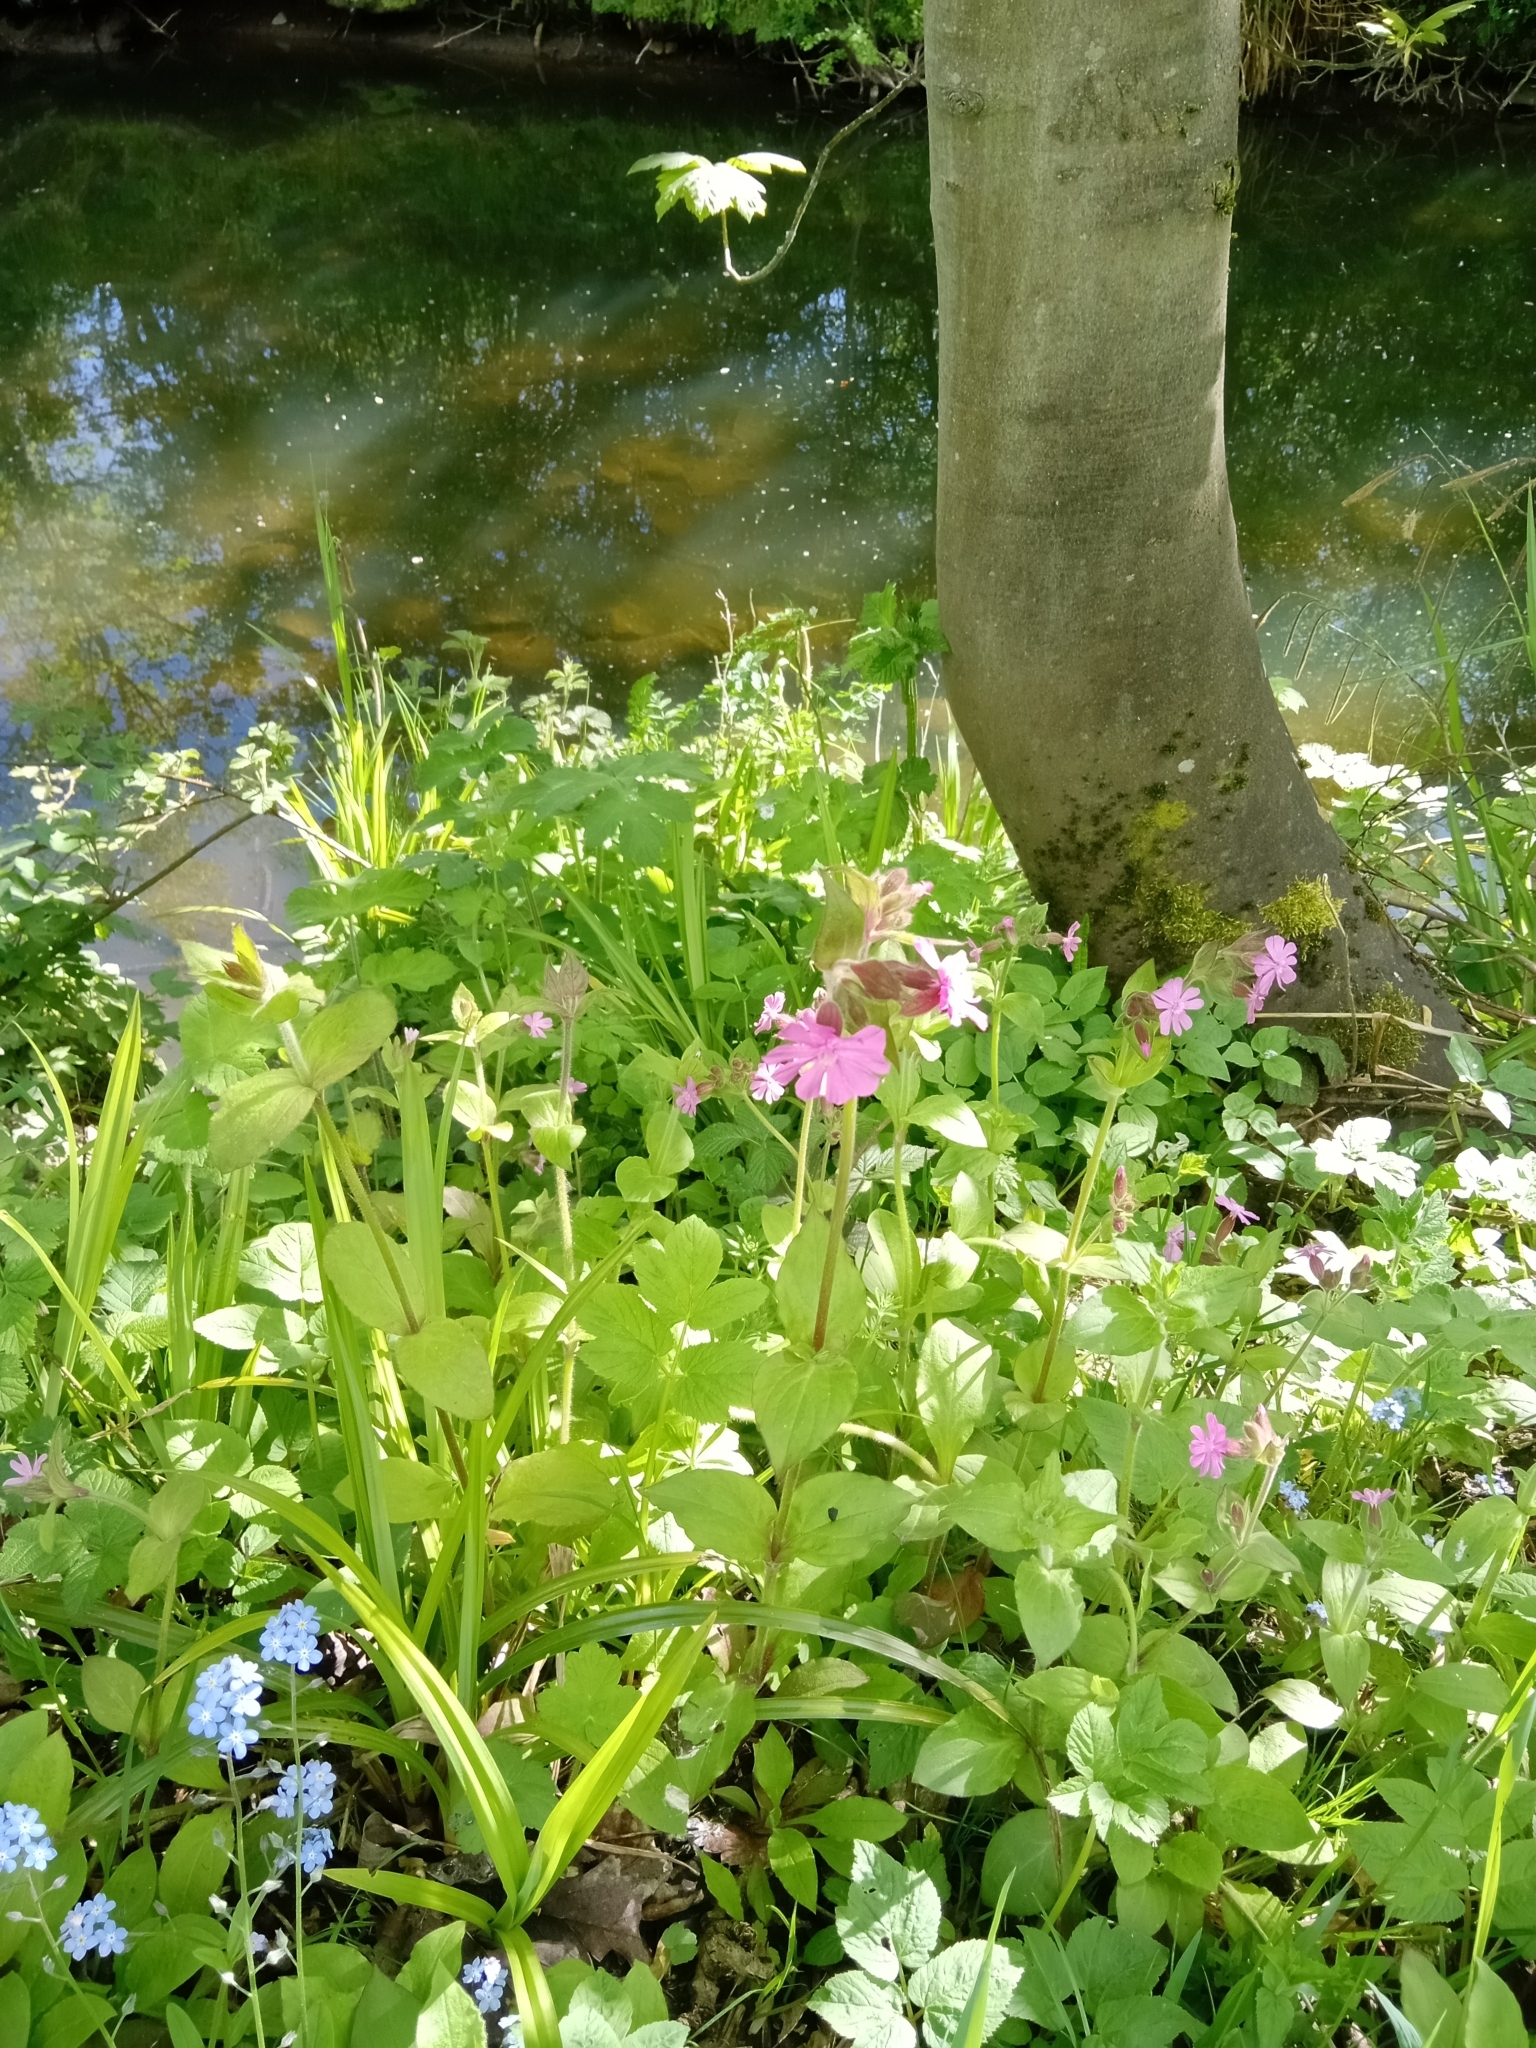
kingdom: Plantae
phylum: Tracheophyta
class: Magnoliopsida
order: Caryophyllales
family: Caryophyllaceae
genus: Silene
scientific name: Silene dioica
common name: Red campion
